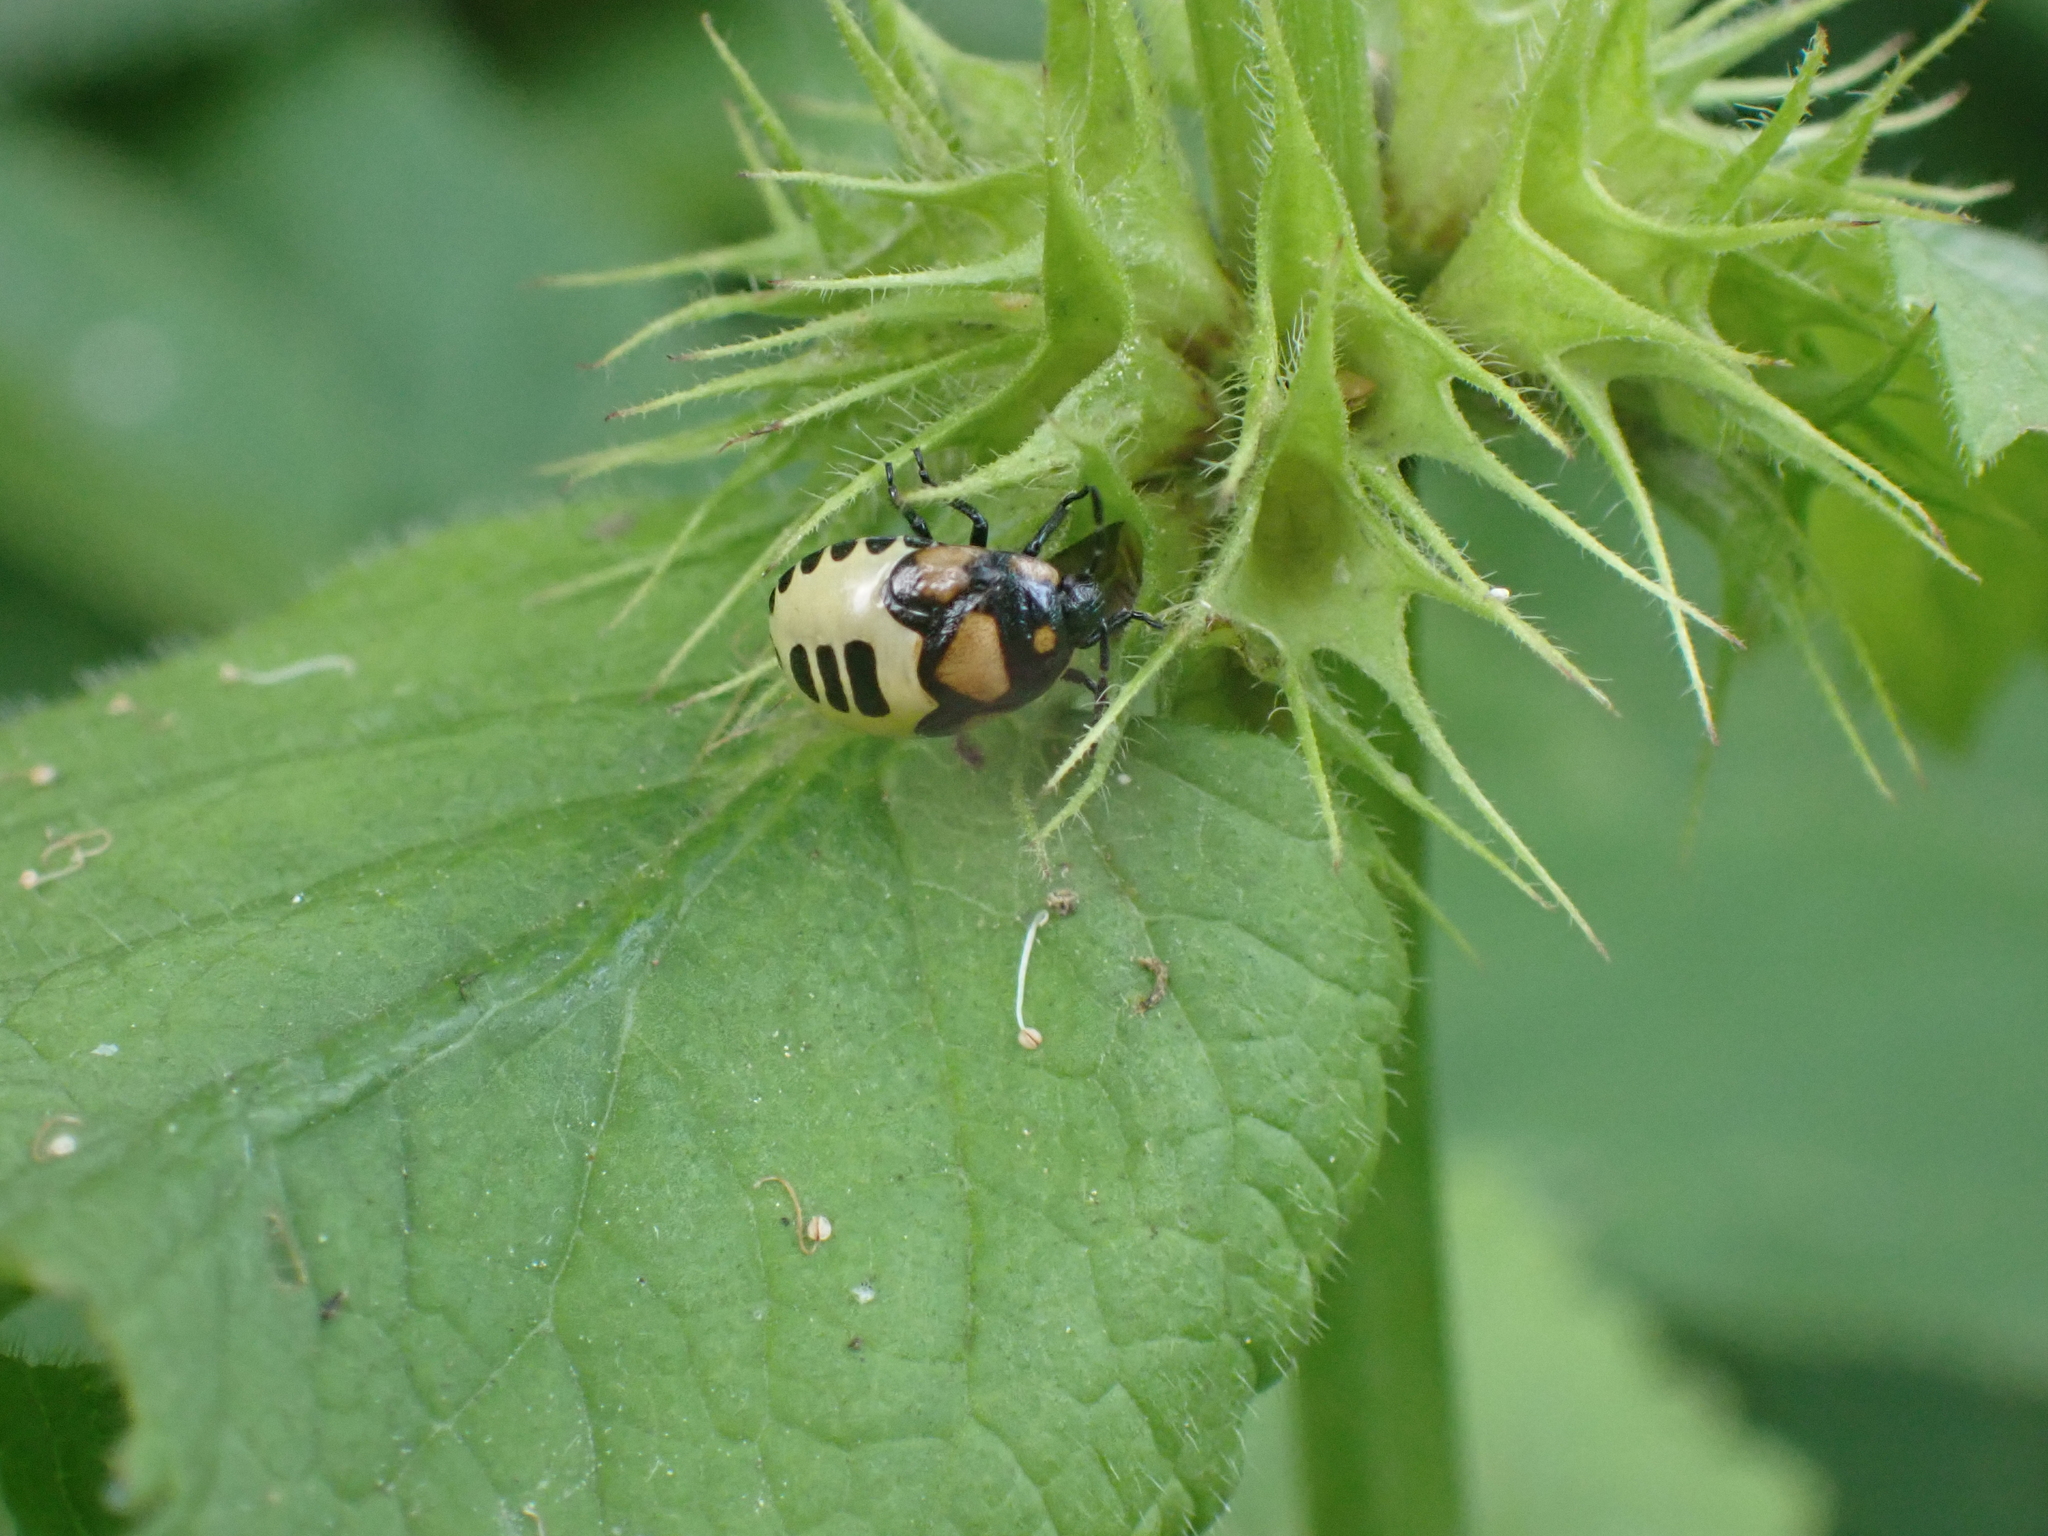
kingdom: Animalia
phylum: Arthropoda
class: Insecta
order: Hemiptera
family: Cydnidae
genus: Tritomegas
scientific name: Tritomegas bicolor
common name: Pied shieldbug
